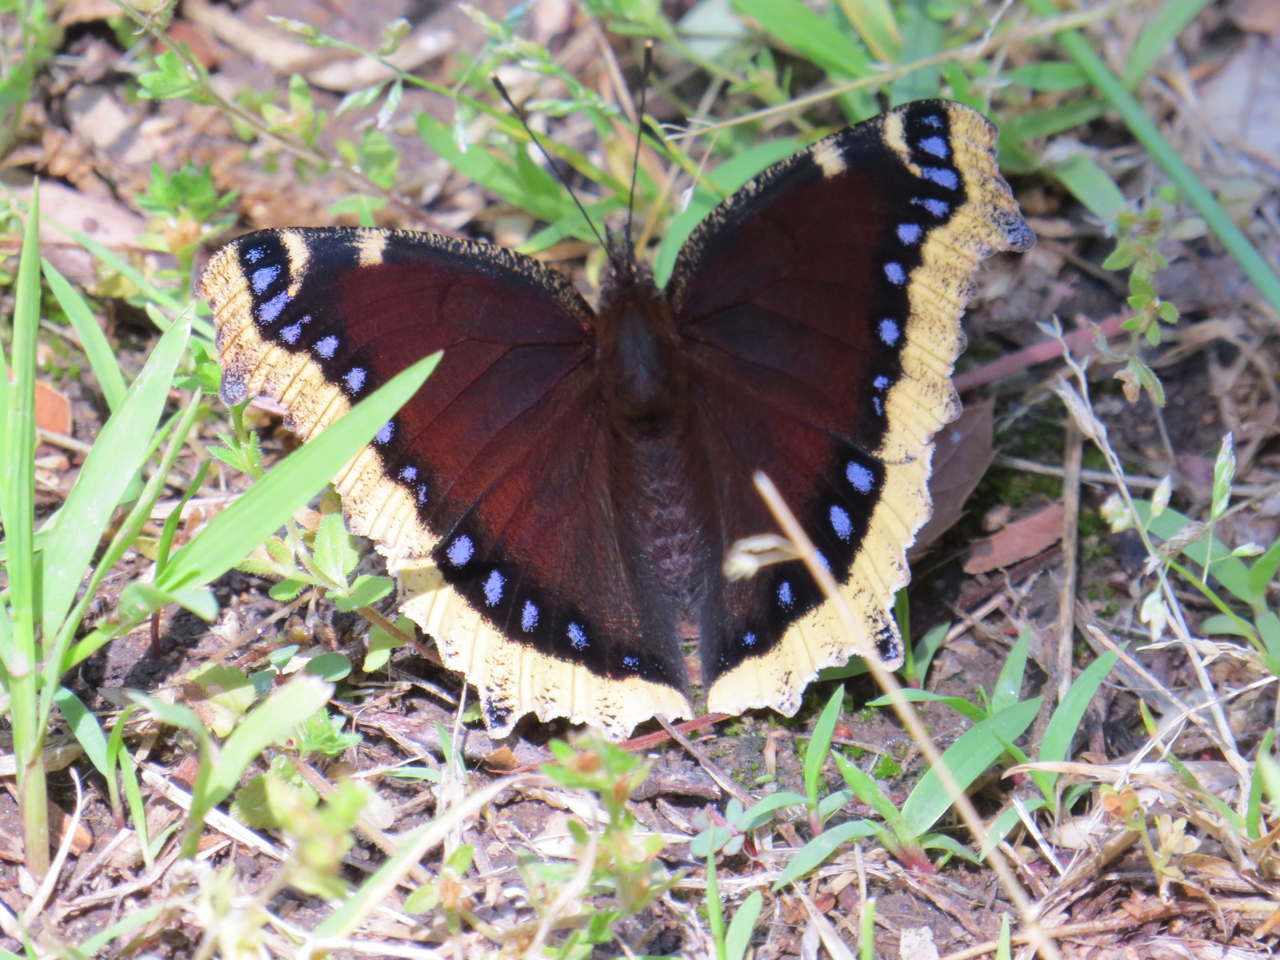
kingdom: Animalia
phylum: Arthropoda
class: Insecta
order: Lepidoptera
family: Nymphalidae
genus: Nymphalis
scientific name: Nymphalis antiopa
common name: Camberwell beauty
